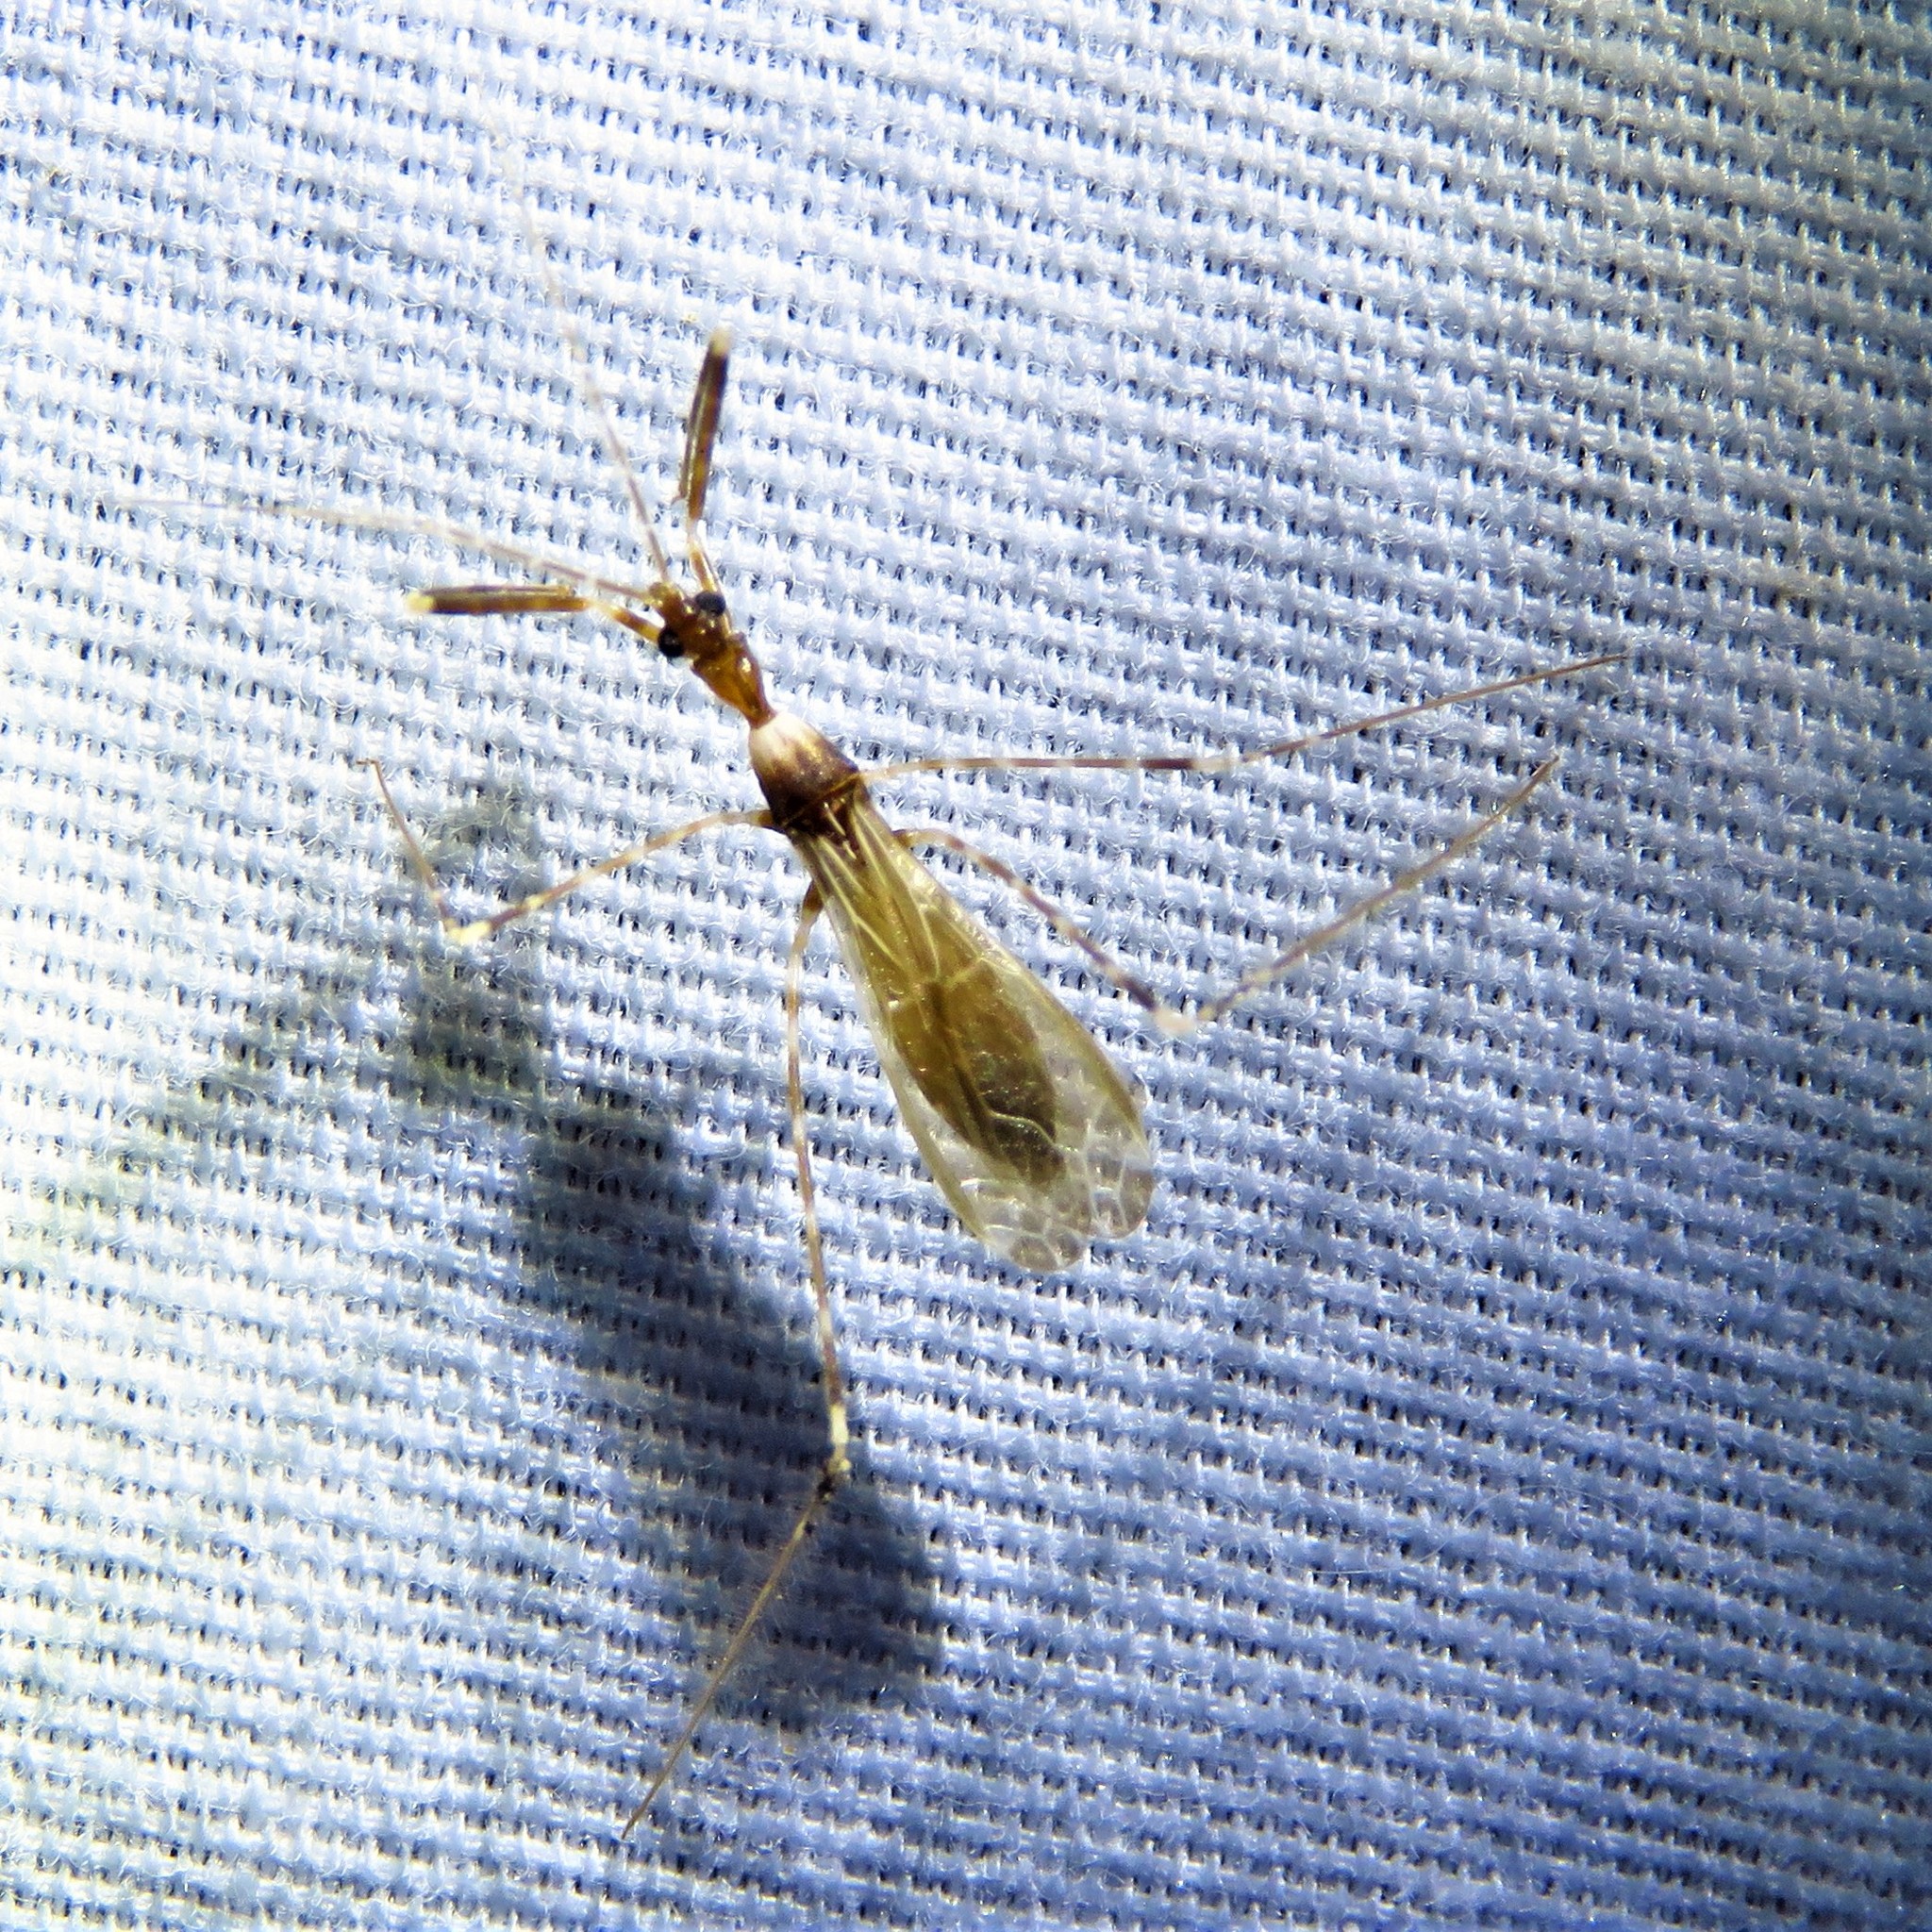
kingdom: Animalia
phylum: Arthropoda
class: Insecta
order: Hemiptera
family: Reduviidae
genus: Stenolemoides
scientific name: Stenolemoides arizonensis
